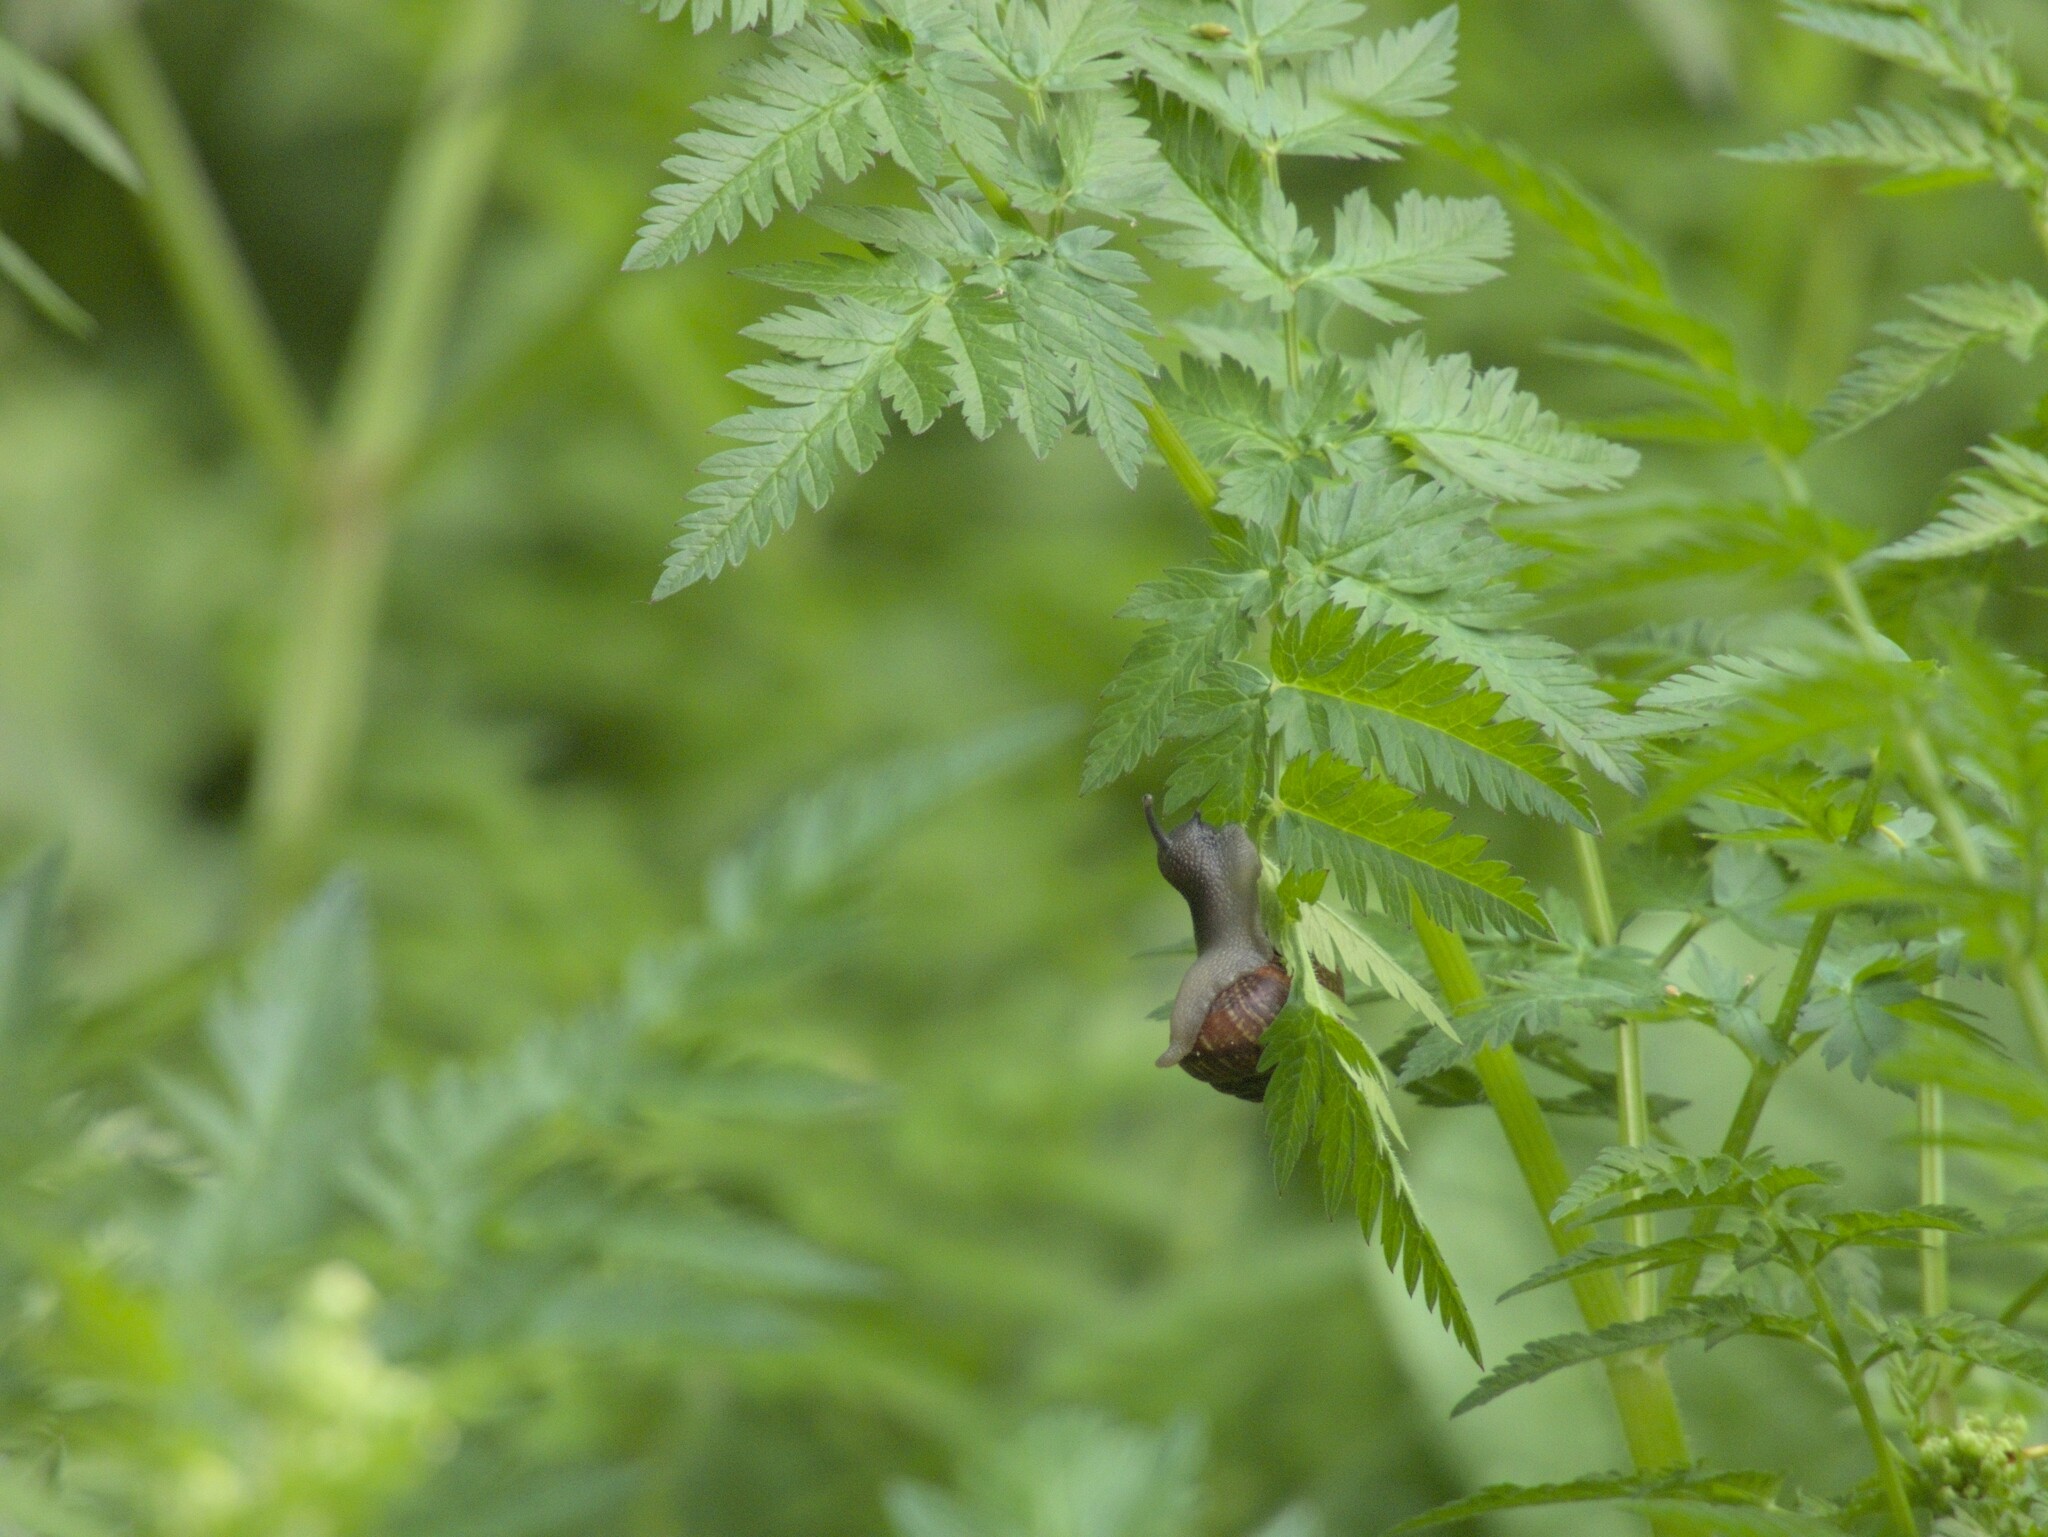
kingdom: Animalia
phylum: Mollusca
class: Gastropoda
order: Stylommatophora
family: Helicidae
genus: Arianta
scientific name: Arianta arbustorum
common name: Copse snail
